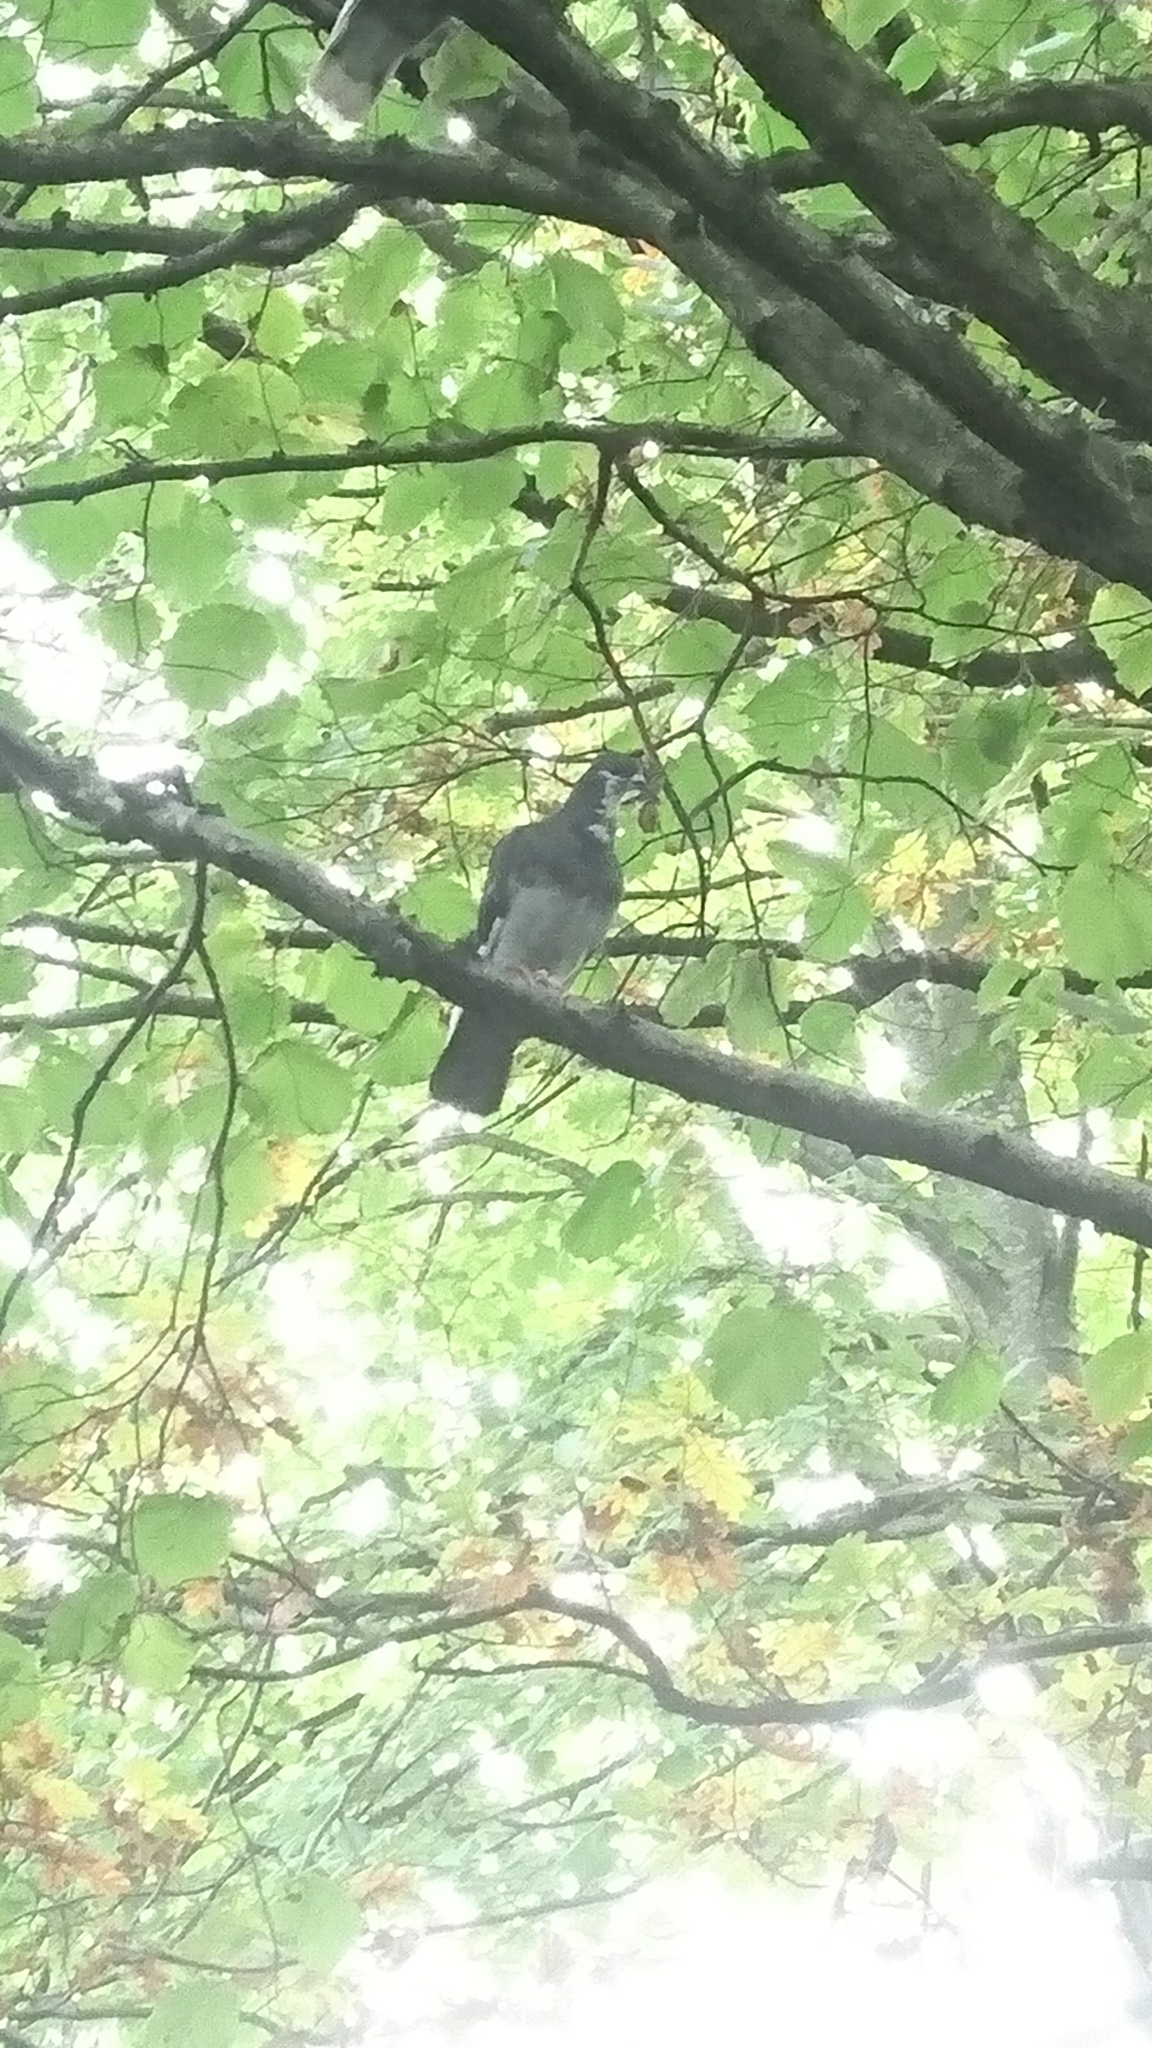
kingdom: Animalia
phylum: Chordata
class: Aves
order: Columbiformes
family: Columbidae
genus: Columba
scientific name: Columba livia
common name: Rock pigeon
